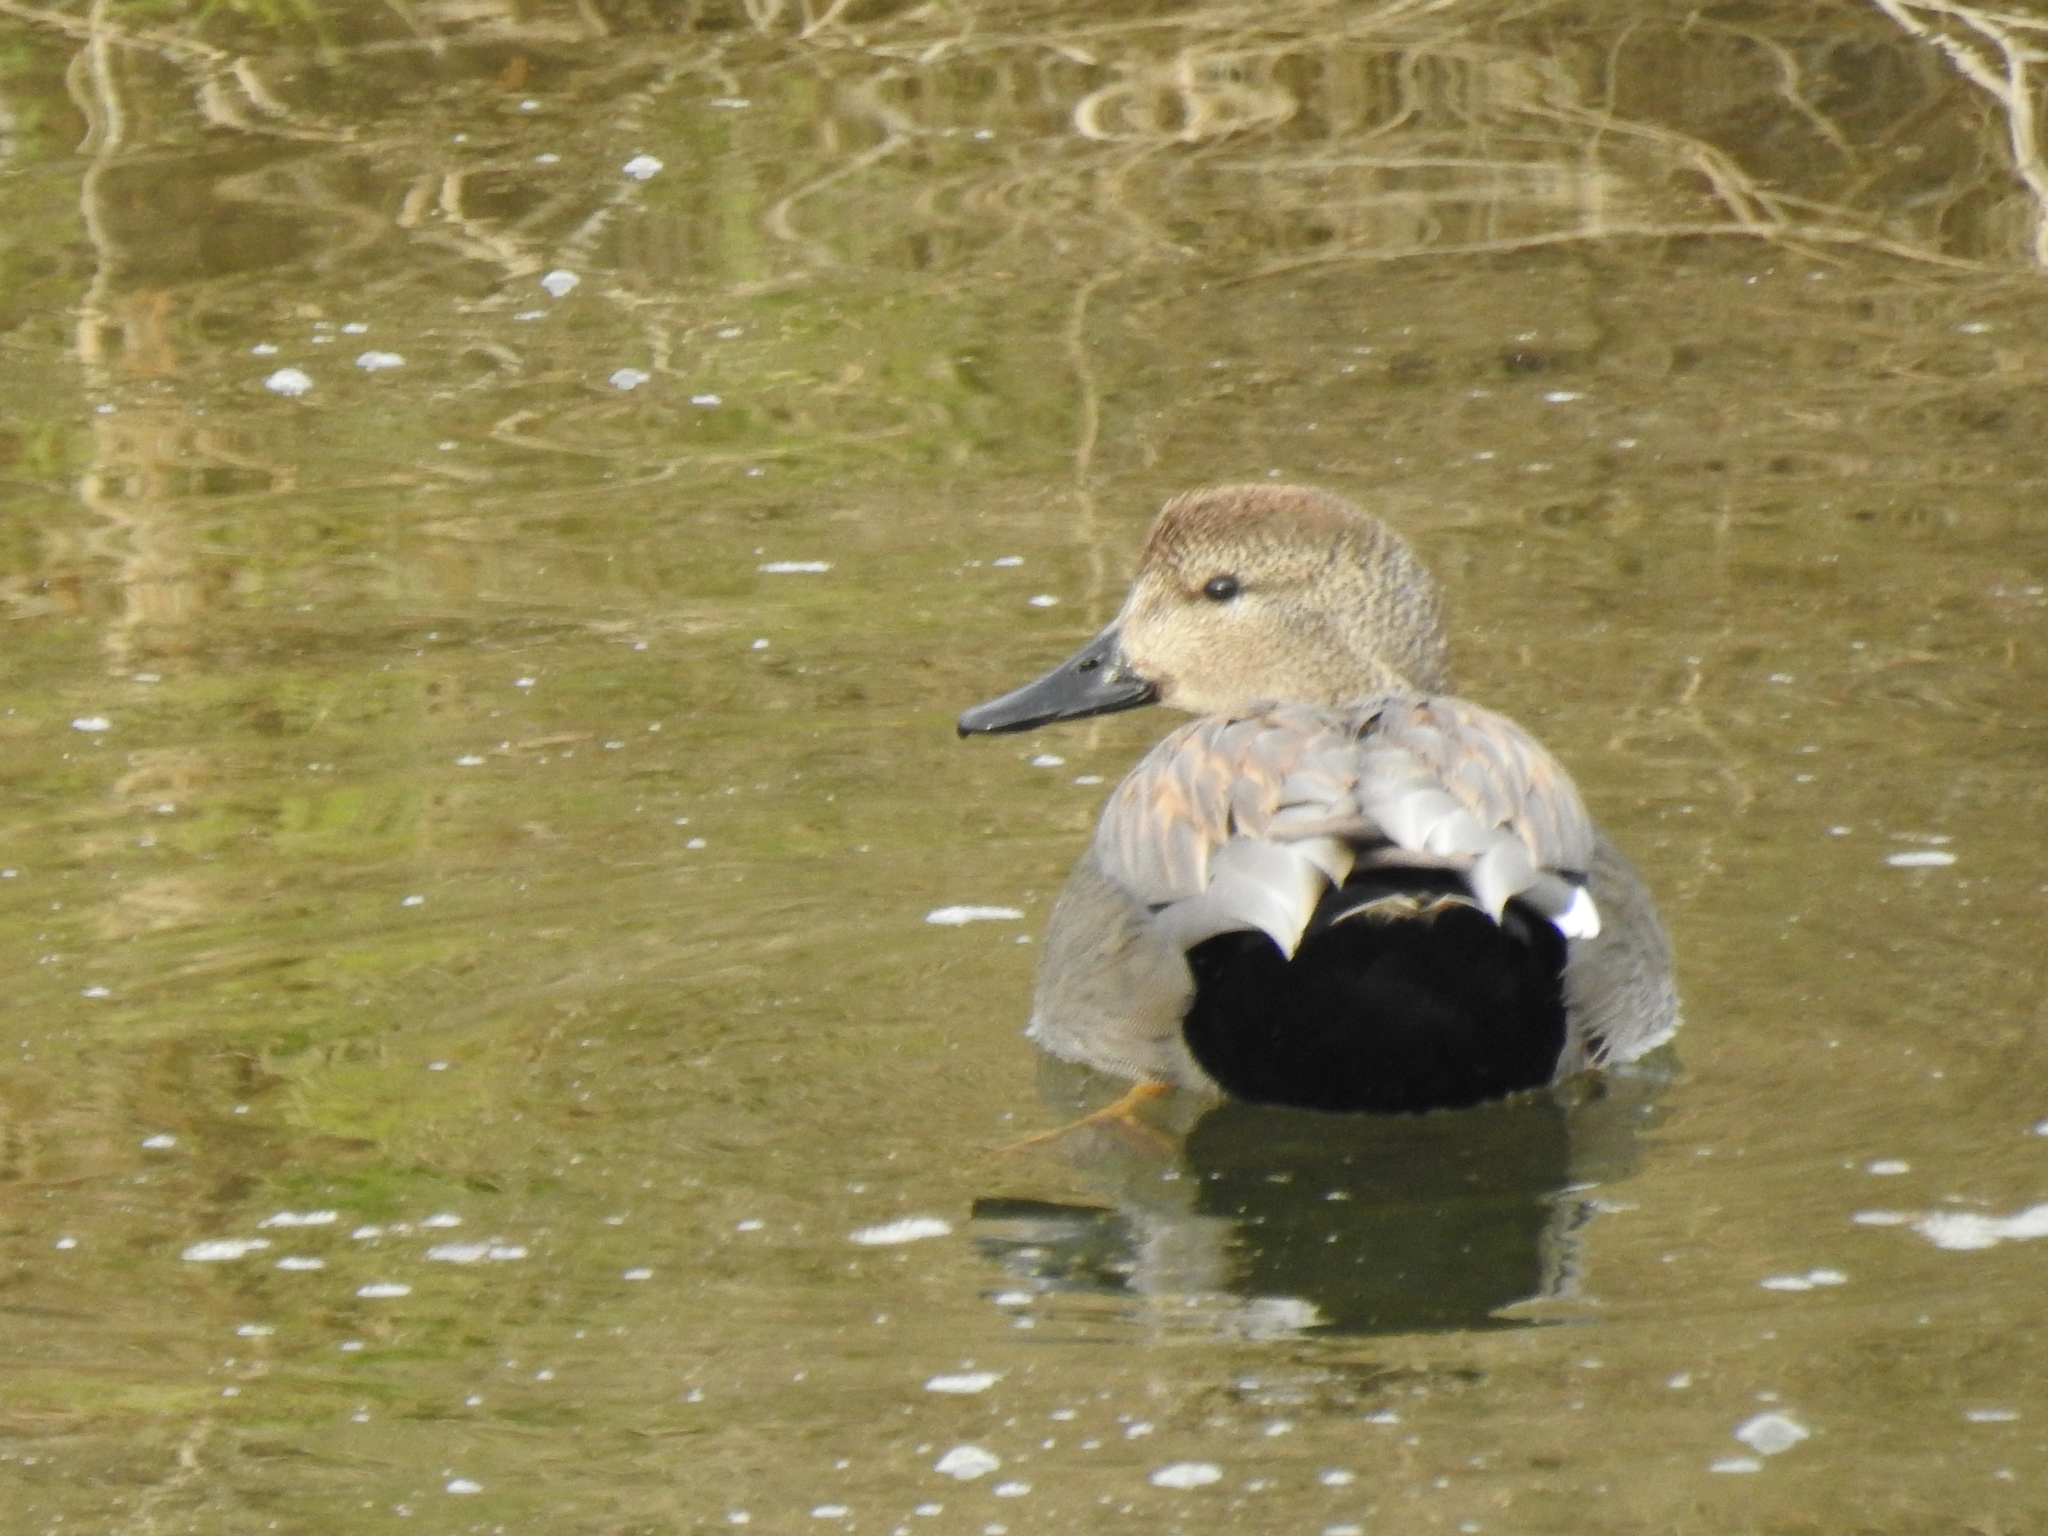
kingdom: Animalia
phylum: Chordata
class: Aves
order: Anseriformes
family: Anatidae
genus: Mareca
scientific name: Mareca strepera
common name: Gadwall
